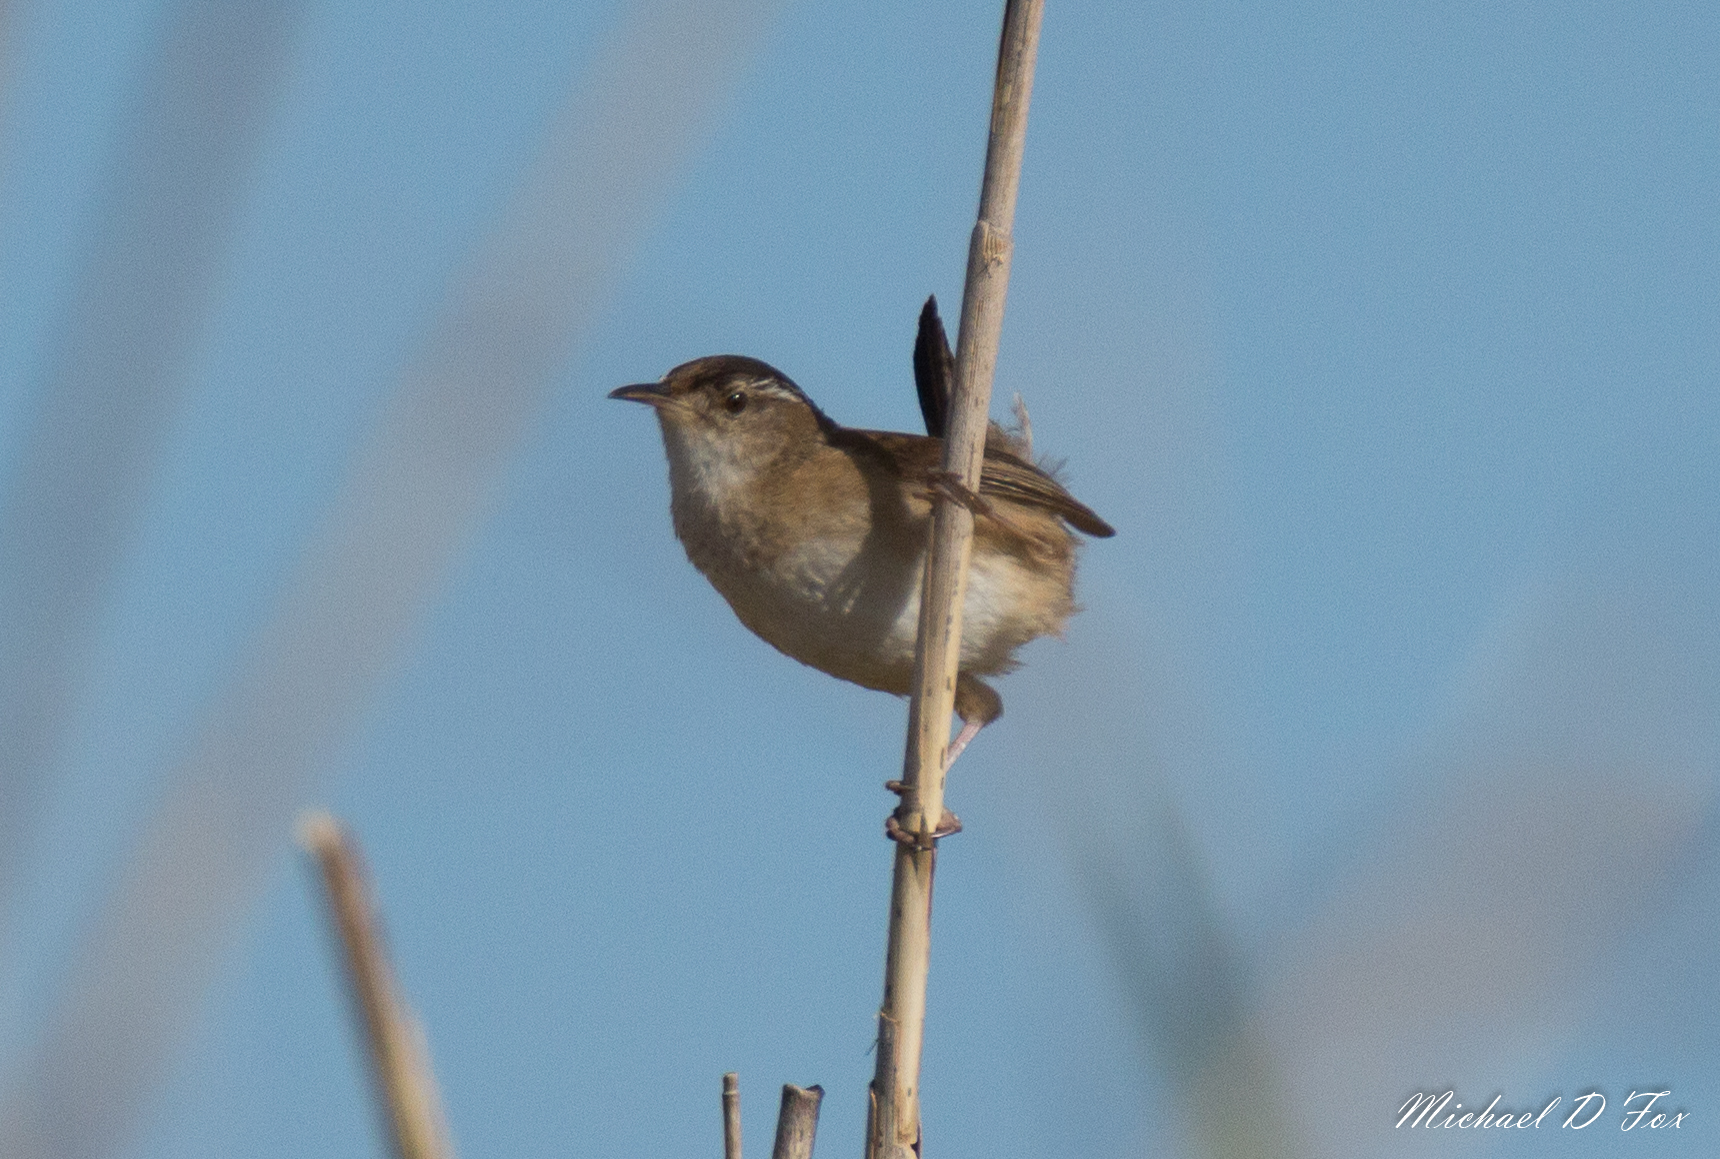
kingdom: Animalia
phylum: Chordata
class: Aves
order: Passeriformes
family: Troglodytidae
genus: Cistothorus
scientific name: Cistothorus palustris
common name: Marsh wren
